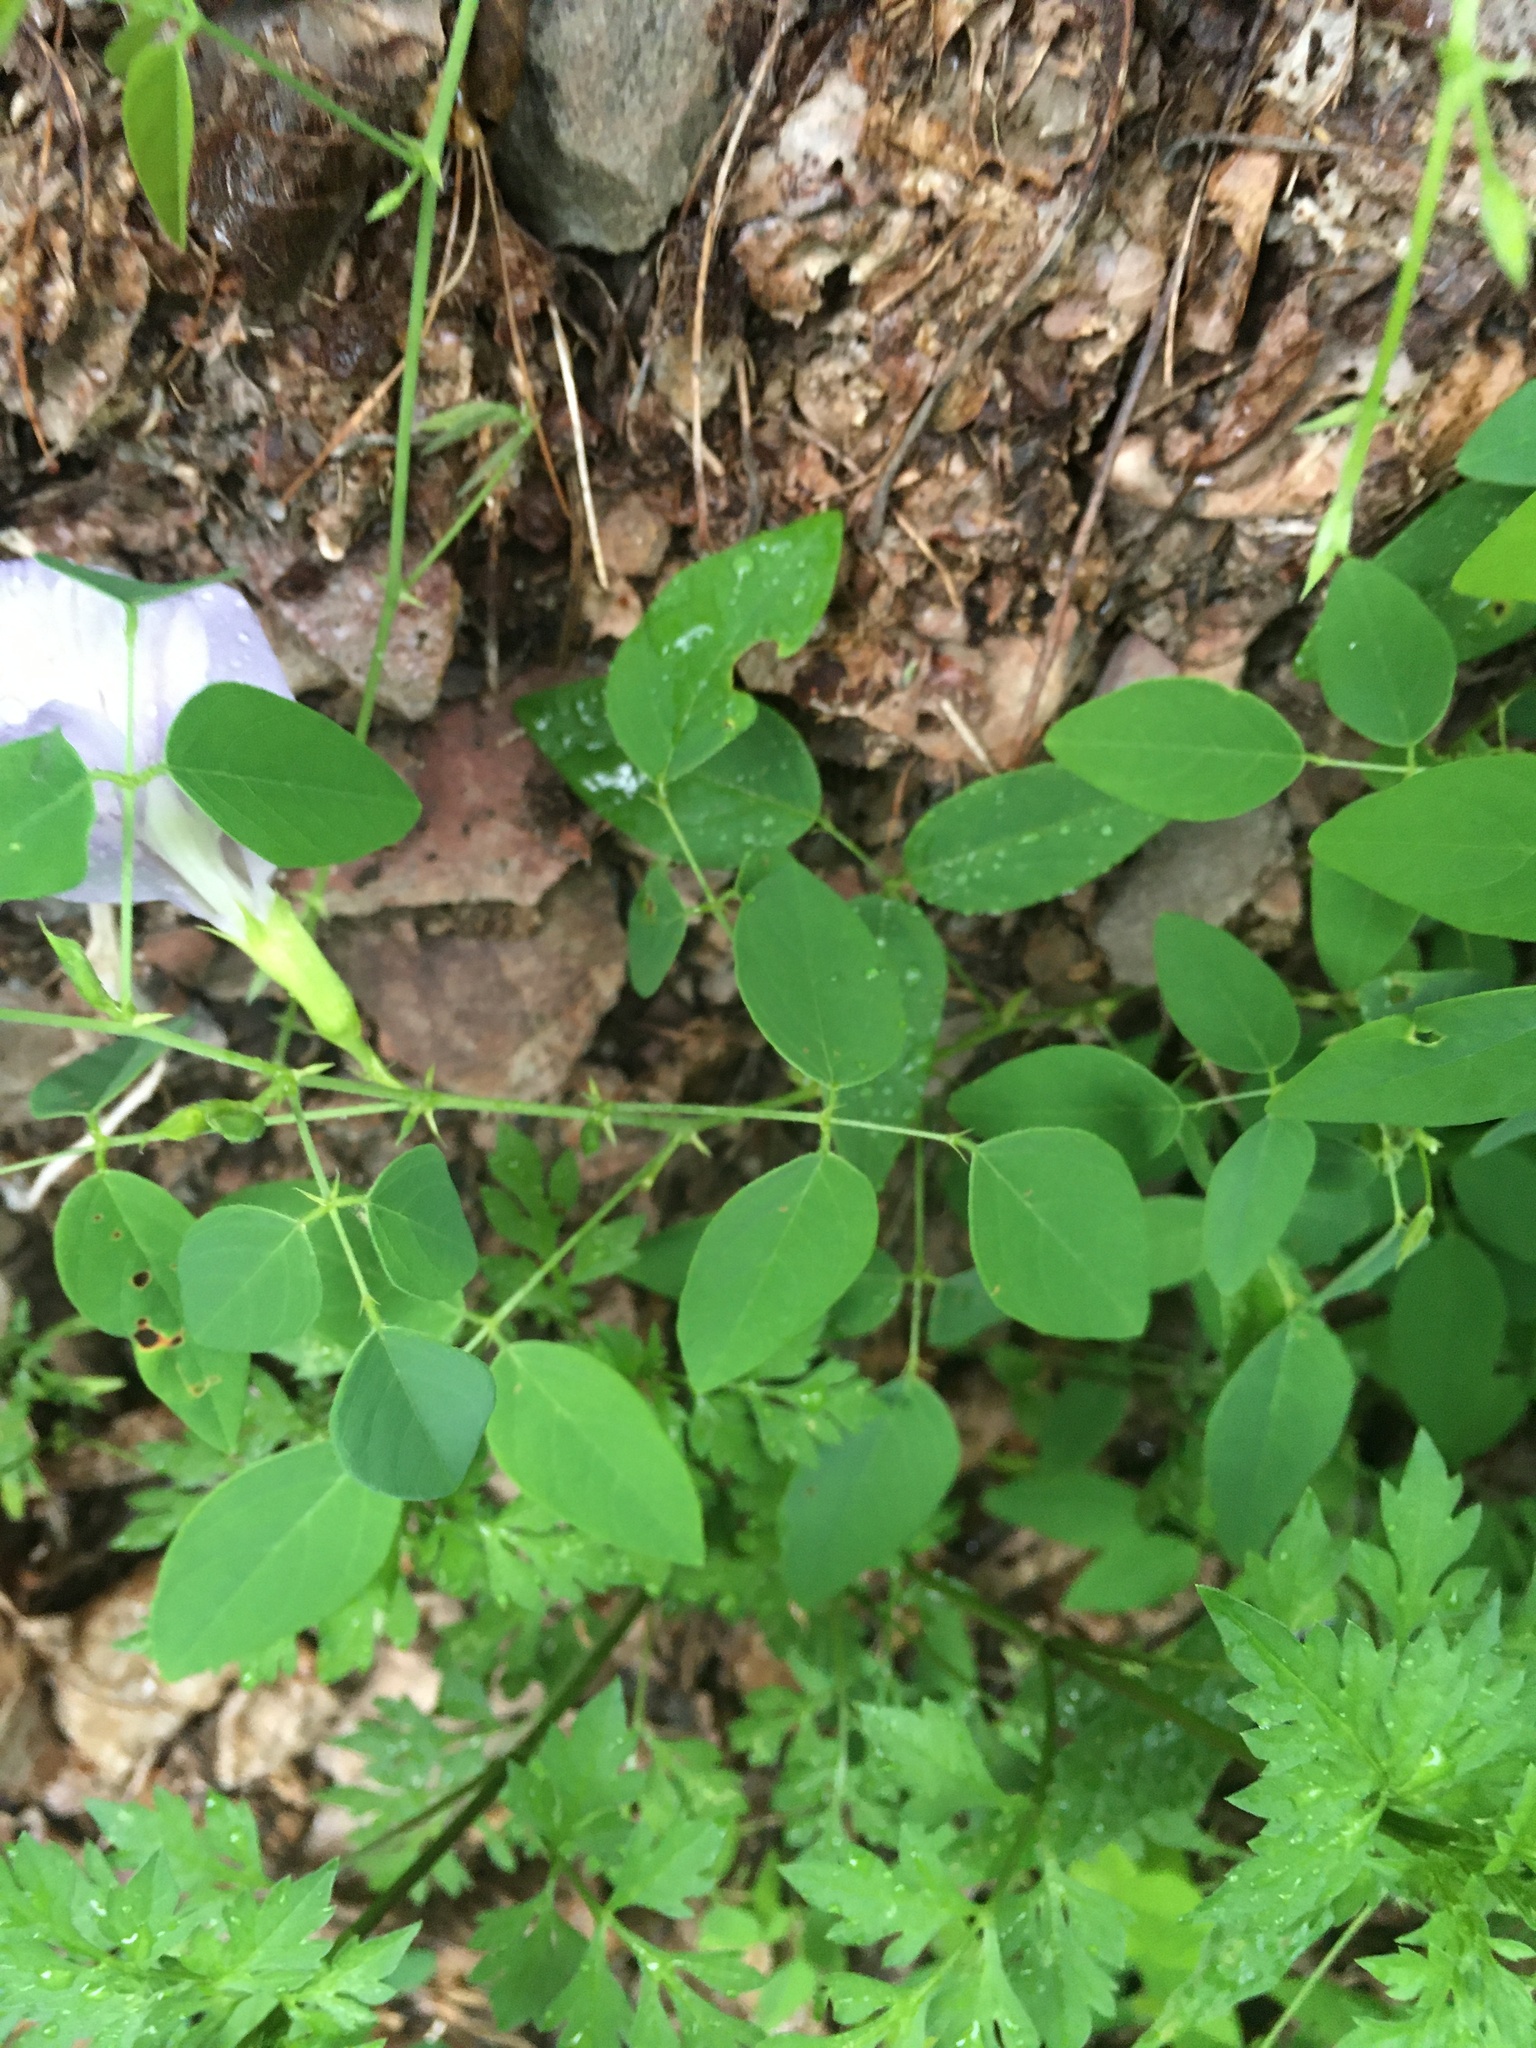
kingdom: Plantae
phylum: Tracheophyta
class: Magnoliopsida
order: Fabales
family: Fabaceae
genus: Clitoria
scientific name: Clitoria mariana
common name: Butterfly-pea
